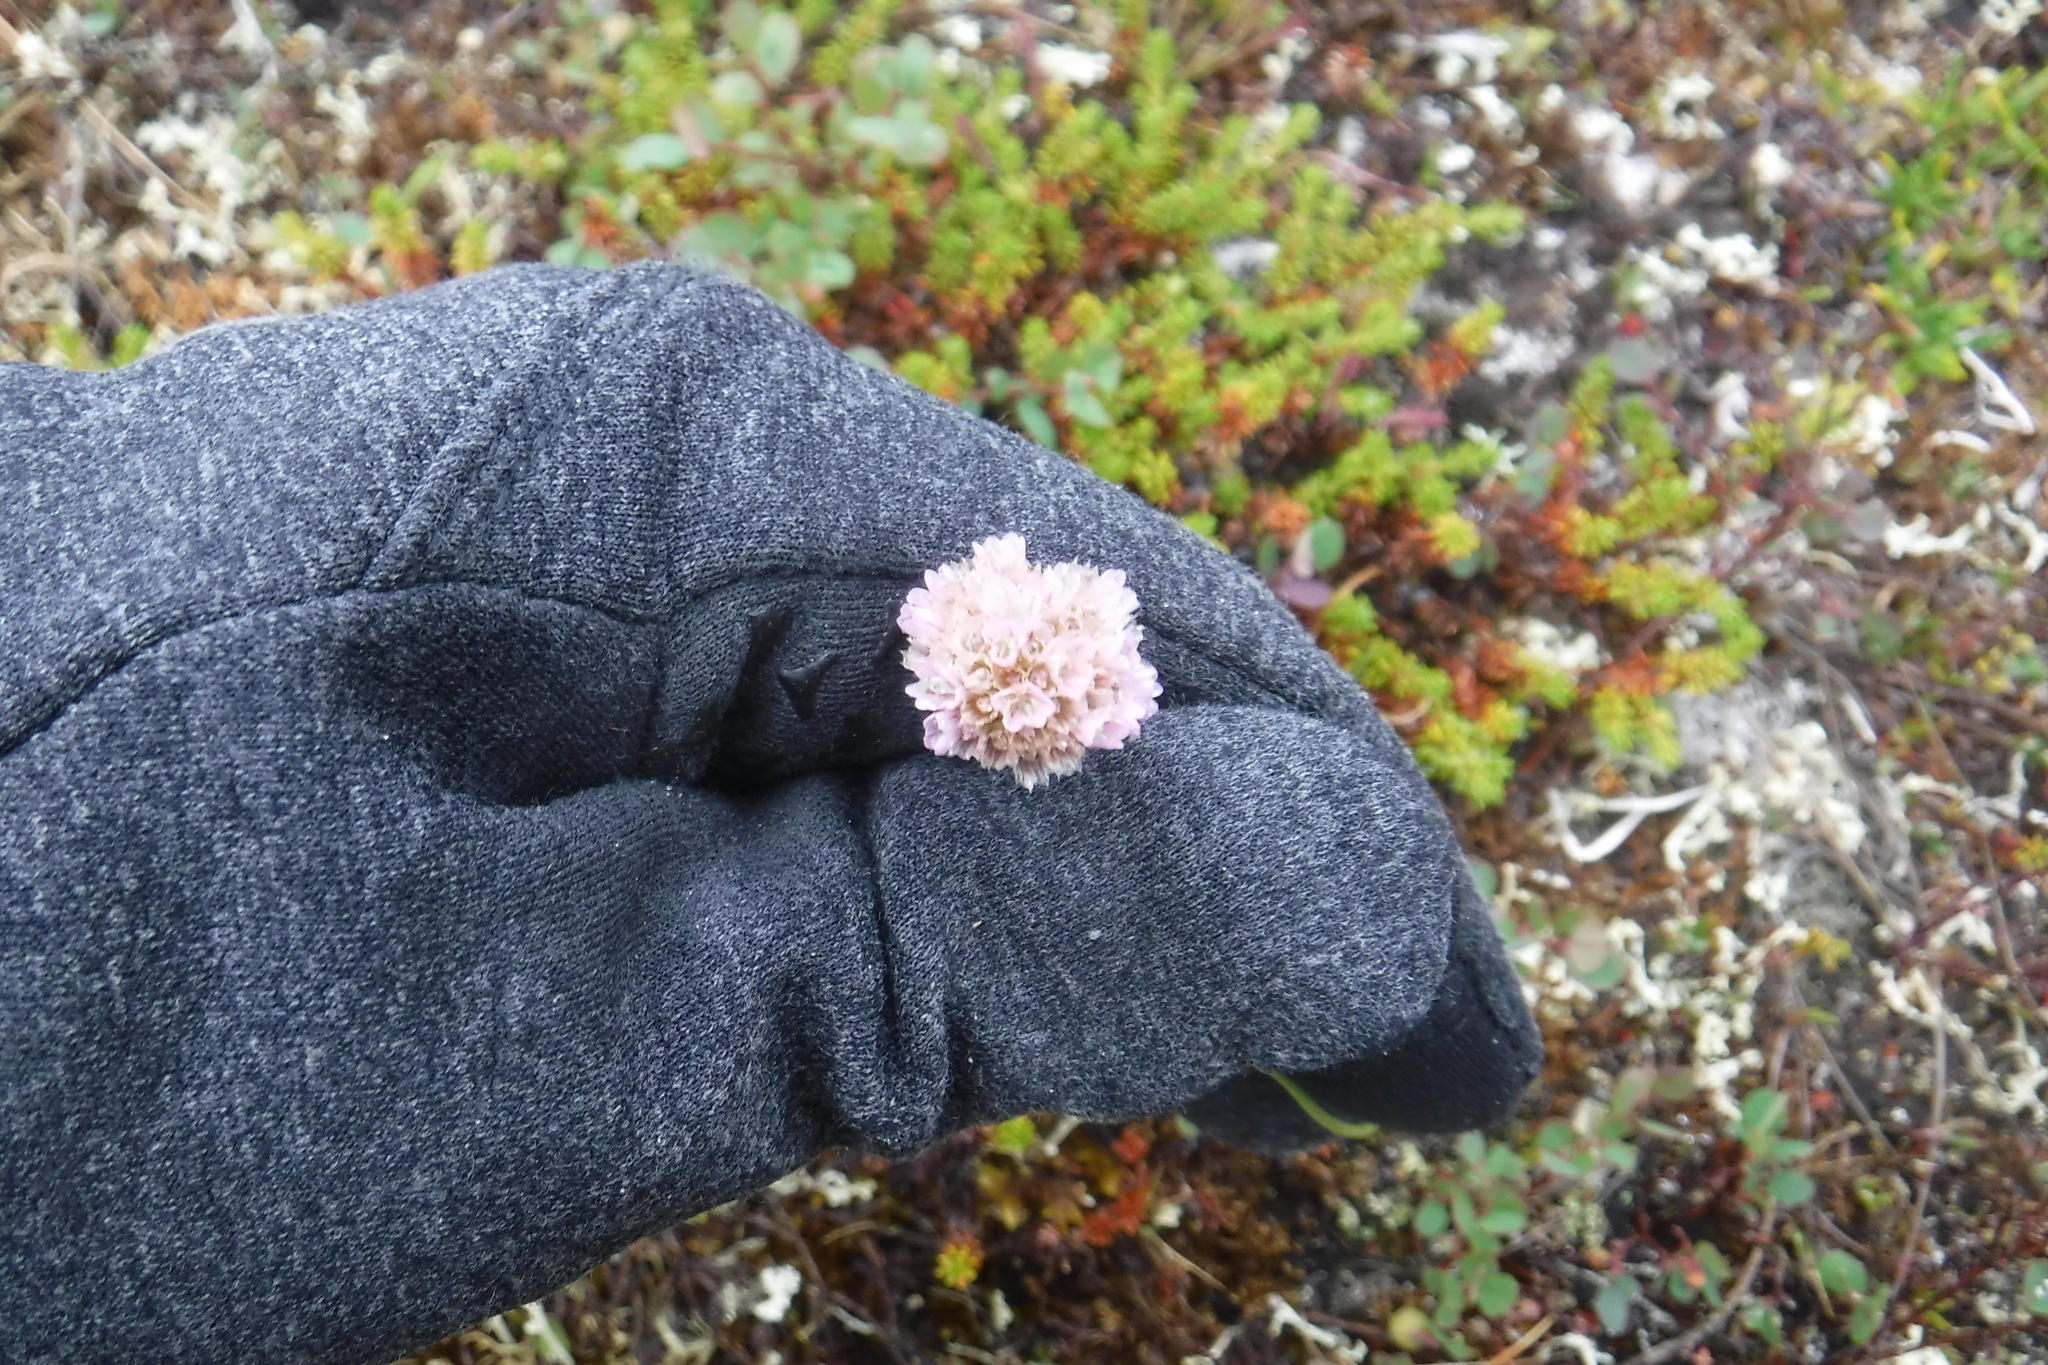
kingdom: Plantae
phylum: Tracheophyta
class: Magnoliopsida
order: Caryophyllales
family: Plumbaginaceae
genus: Armeria
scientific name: Armeria maritima
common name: Thrift
